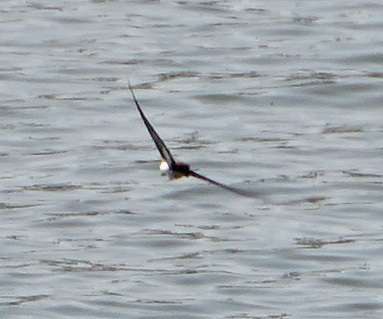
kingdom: Animalia
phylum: Chordata
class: Aves
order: Passeriformes
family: Hirundinidae
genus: Hirundo
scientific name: Hirundo smithii
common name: Wire-tailed swallow
